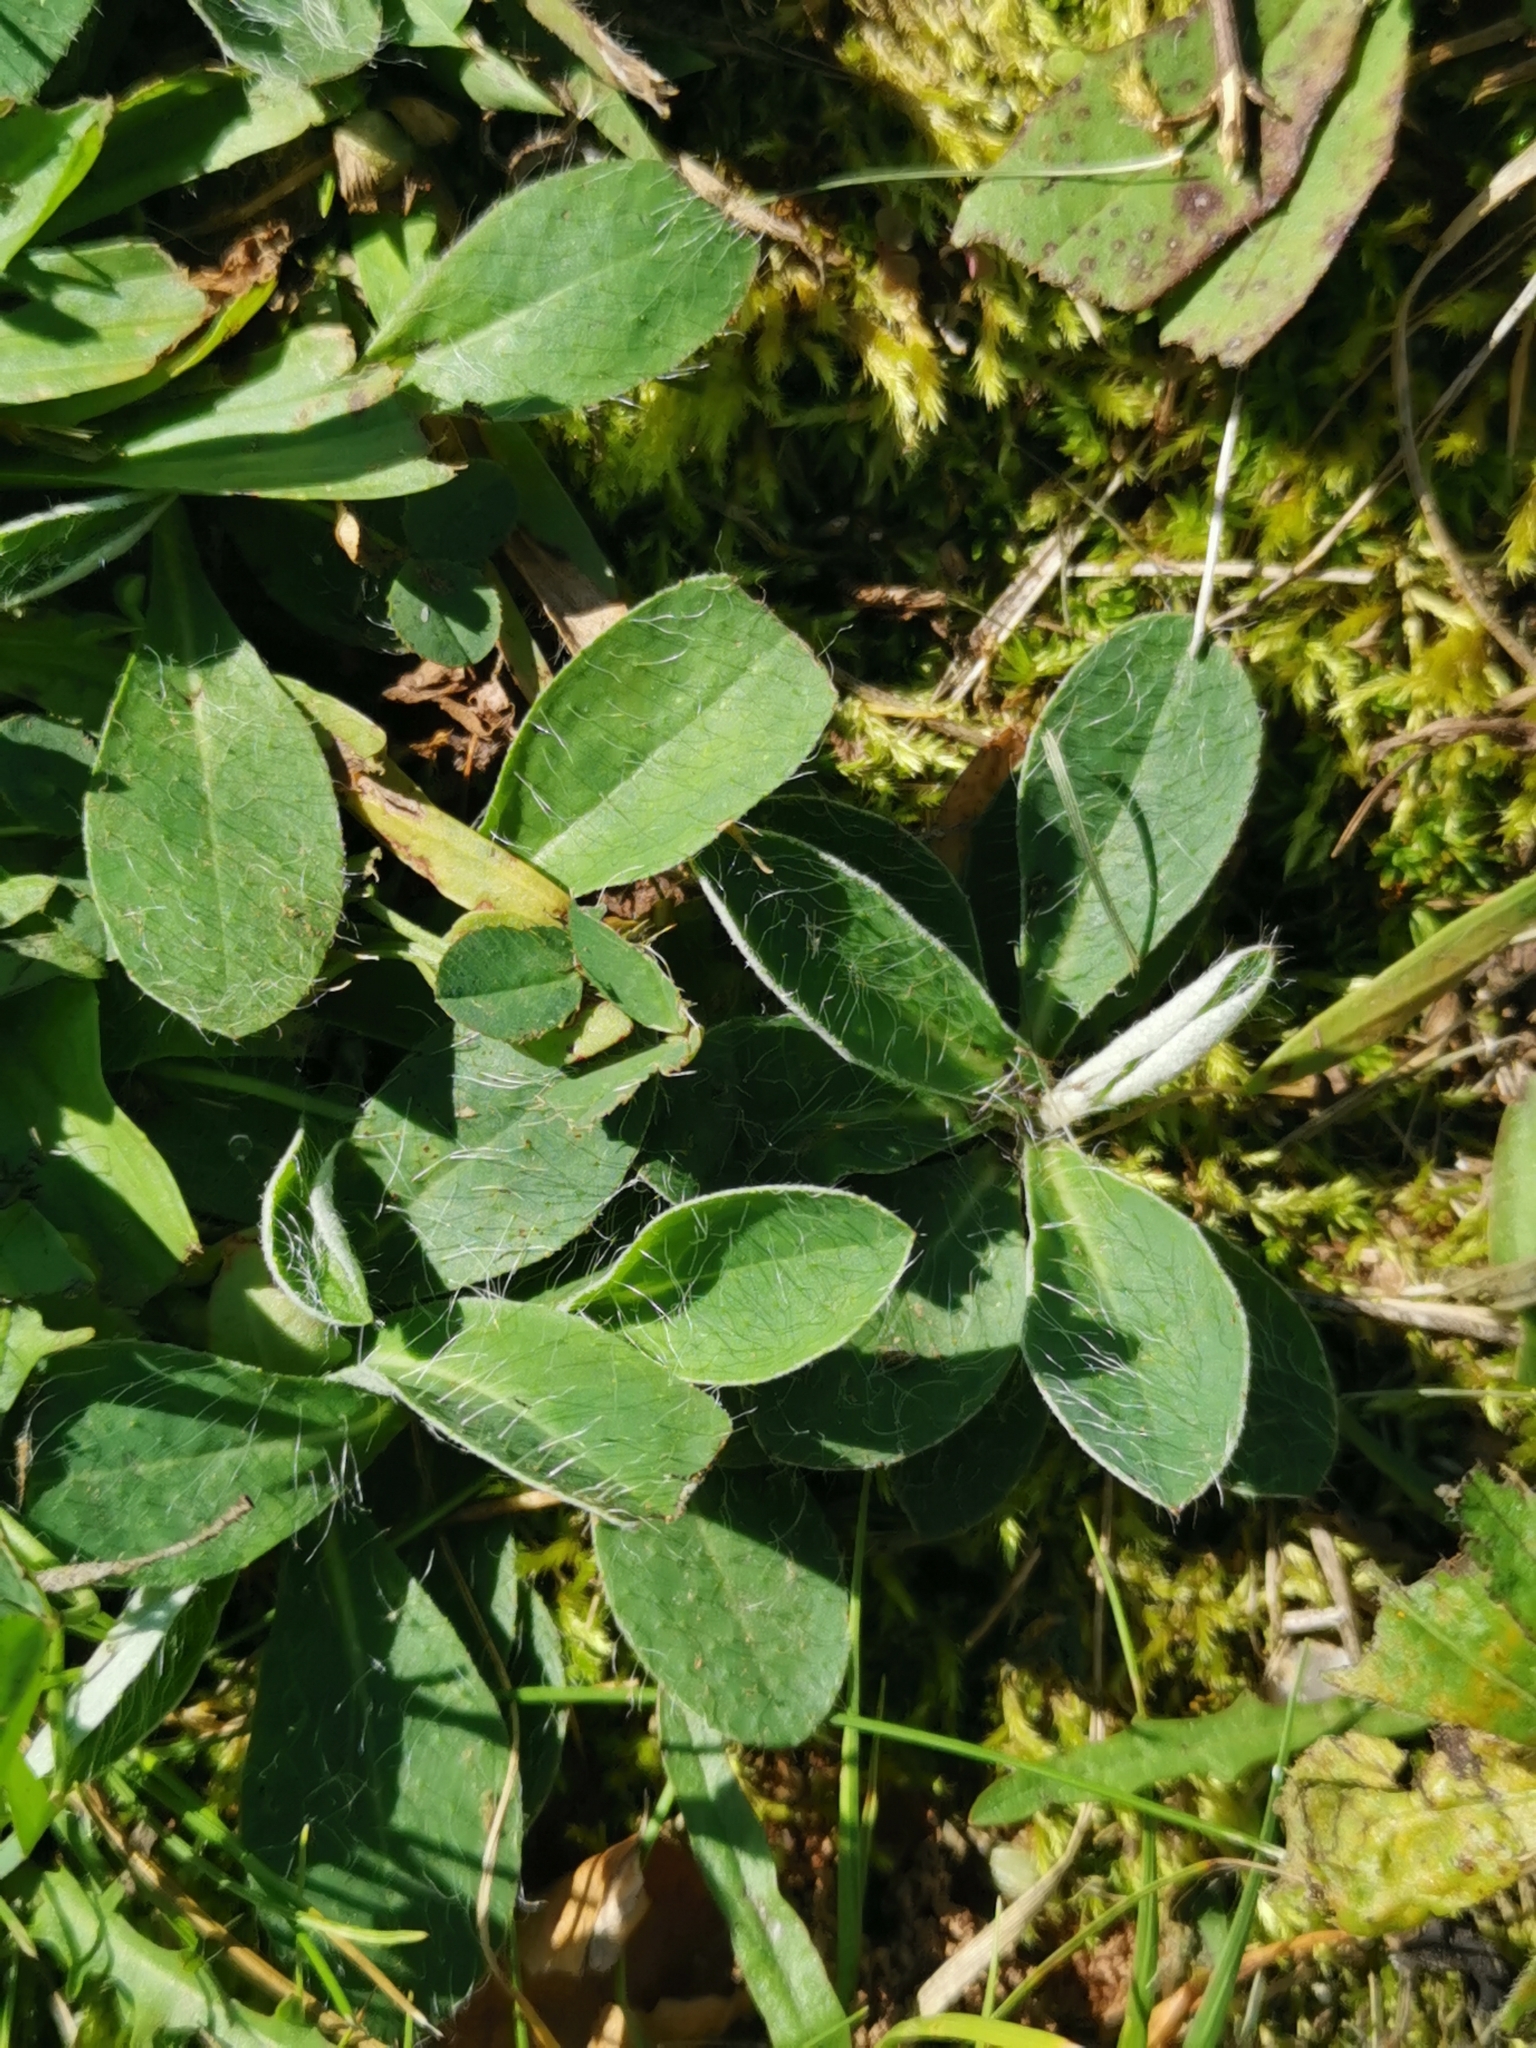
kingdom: Plantae
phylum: Tracheophyta
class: Magnoliopsida
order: Asterales
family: Asteraceae
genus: Pilosella
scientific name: Pilosella officinarum
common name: Mouse-ear hawkweed
